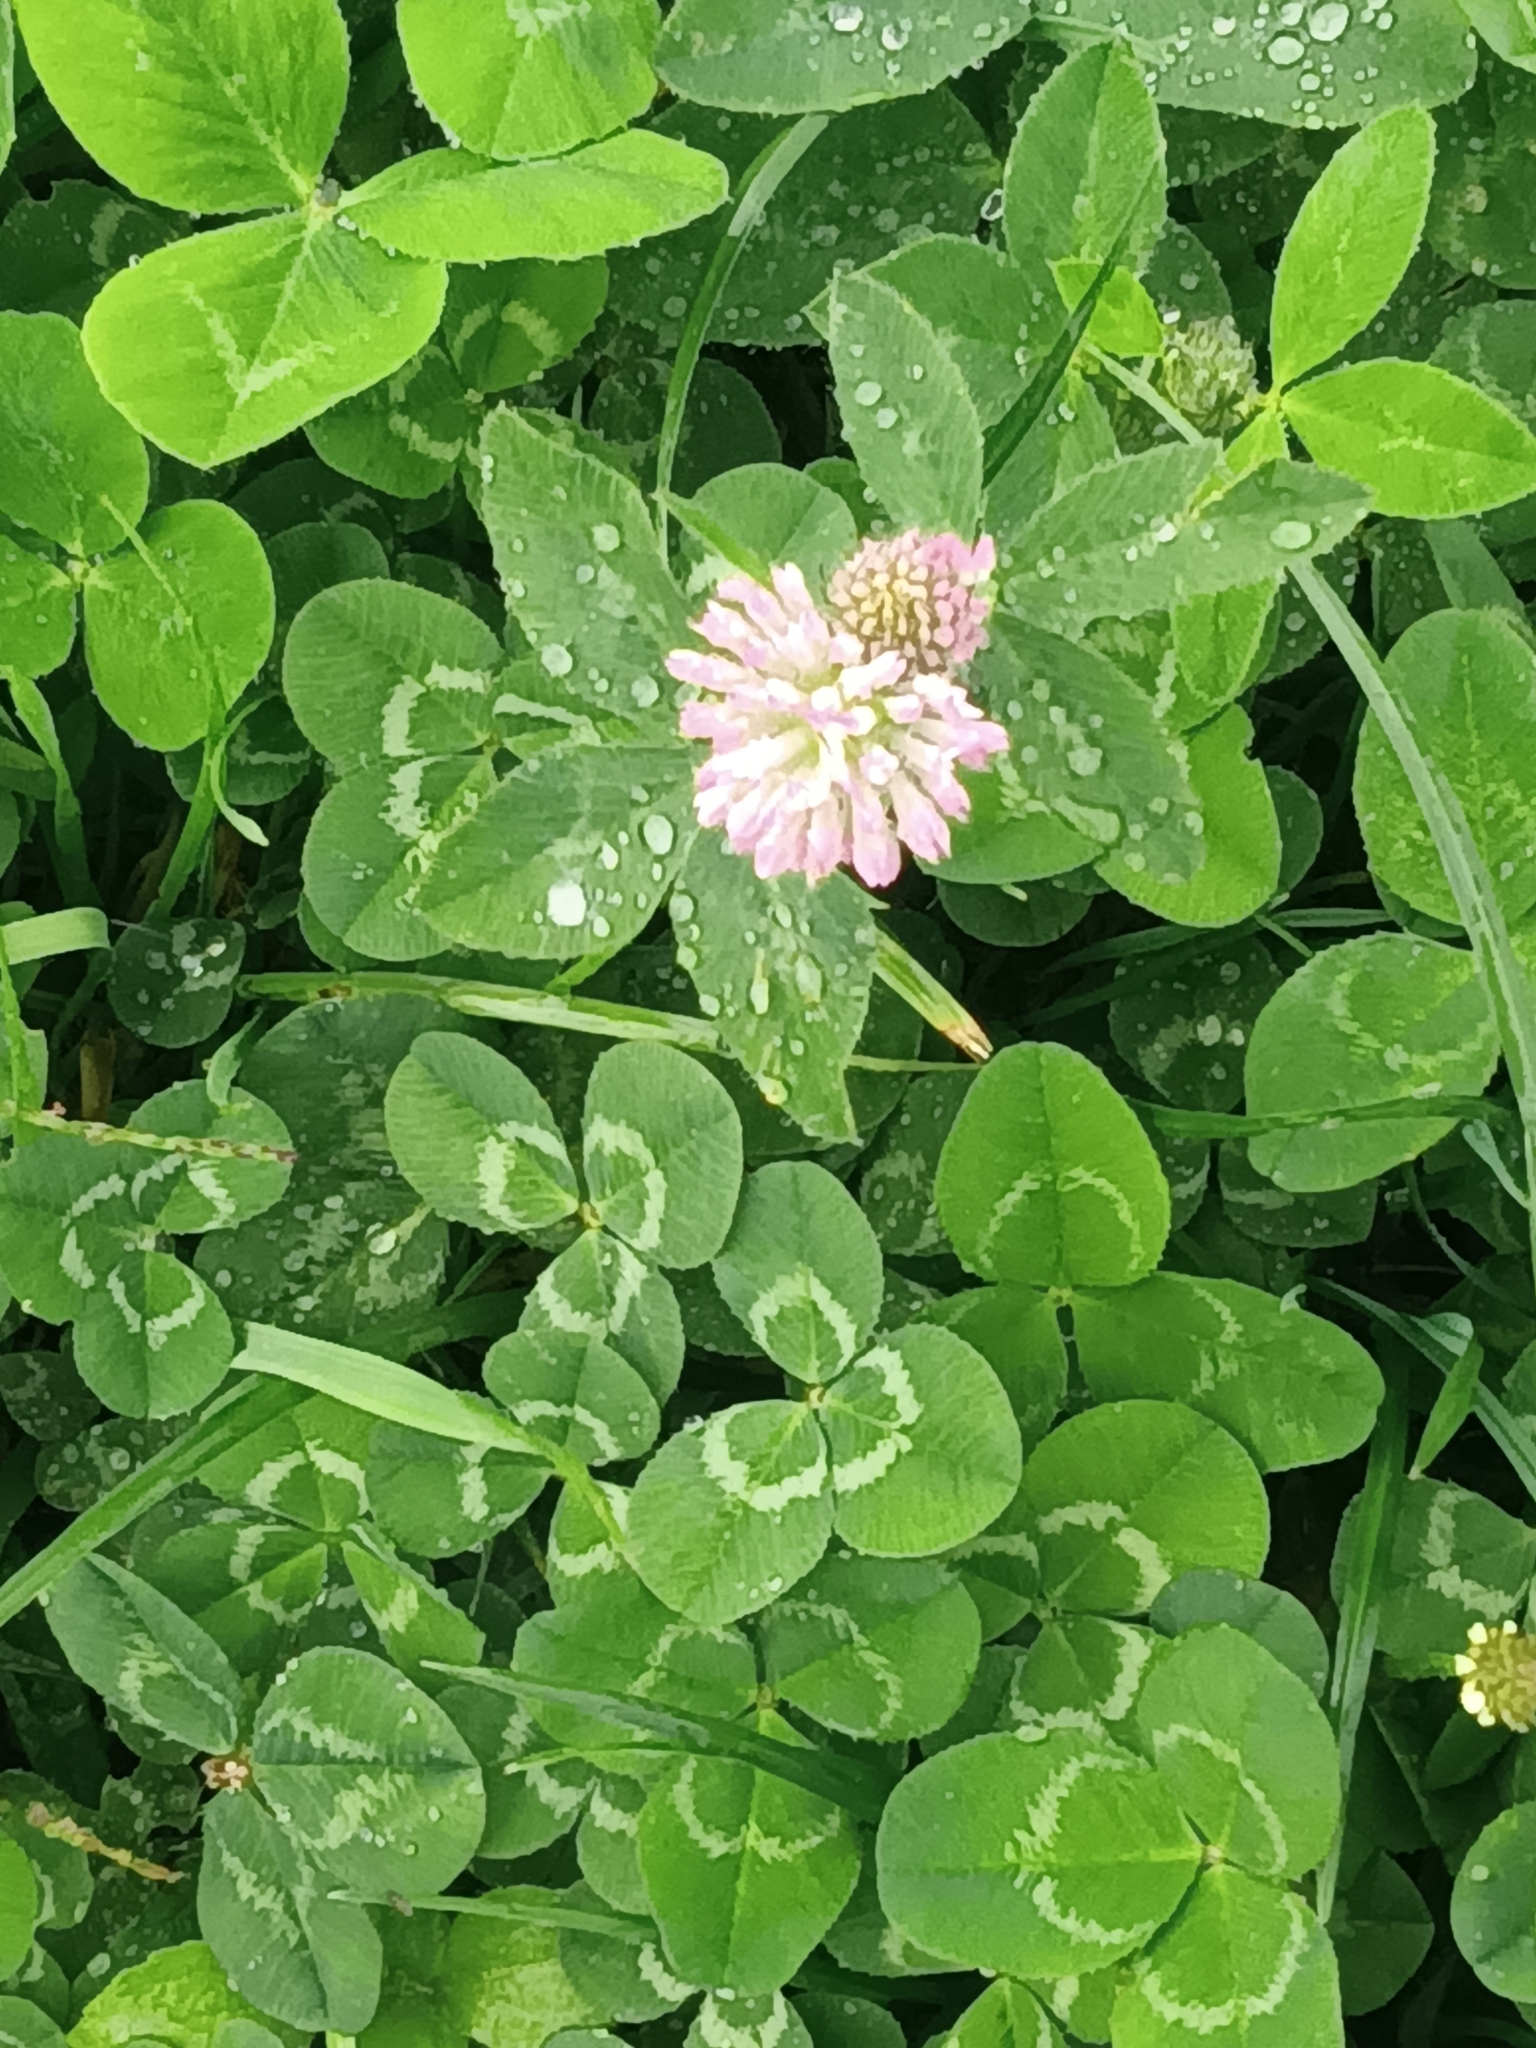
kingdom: Plantae
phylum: Tracheophyta
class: Magnoliopsida
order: Fabales
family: Fabaceae
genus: Trifolium
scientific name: Trifolium pratense
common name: Red clover
